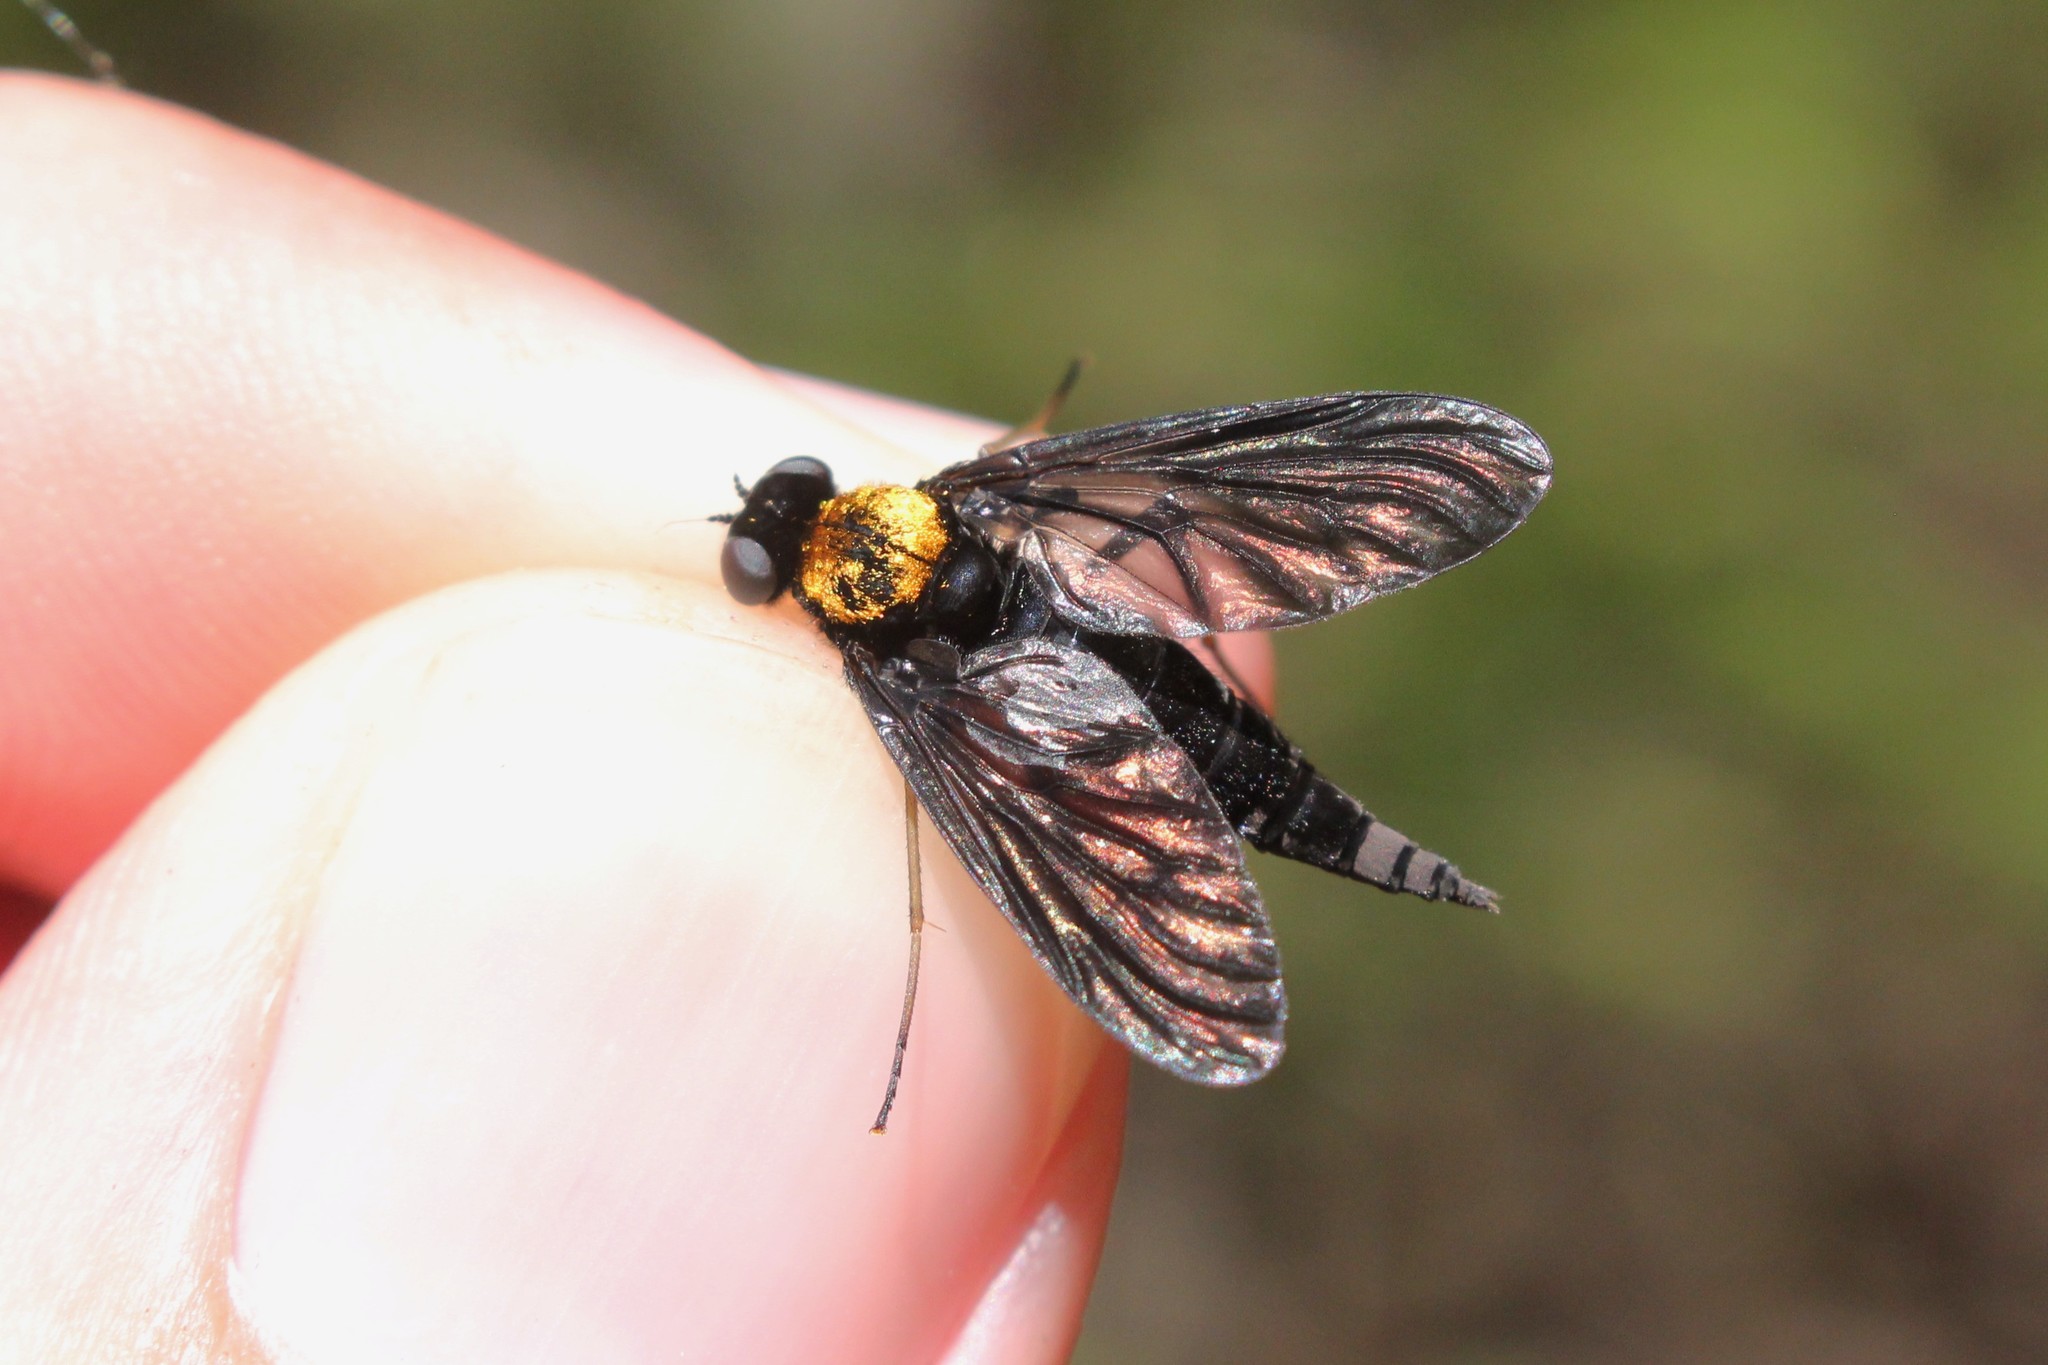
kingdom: Animalia
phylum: Arthropoda
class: Insecta
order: Diptera
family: Rhagionidae
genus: Chrysopilus
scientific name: Chrysopilus thoracicus
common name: Golden-backed snipe fly
